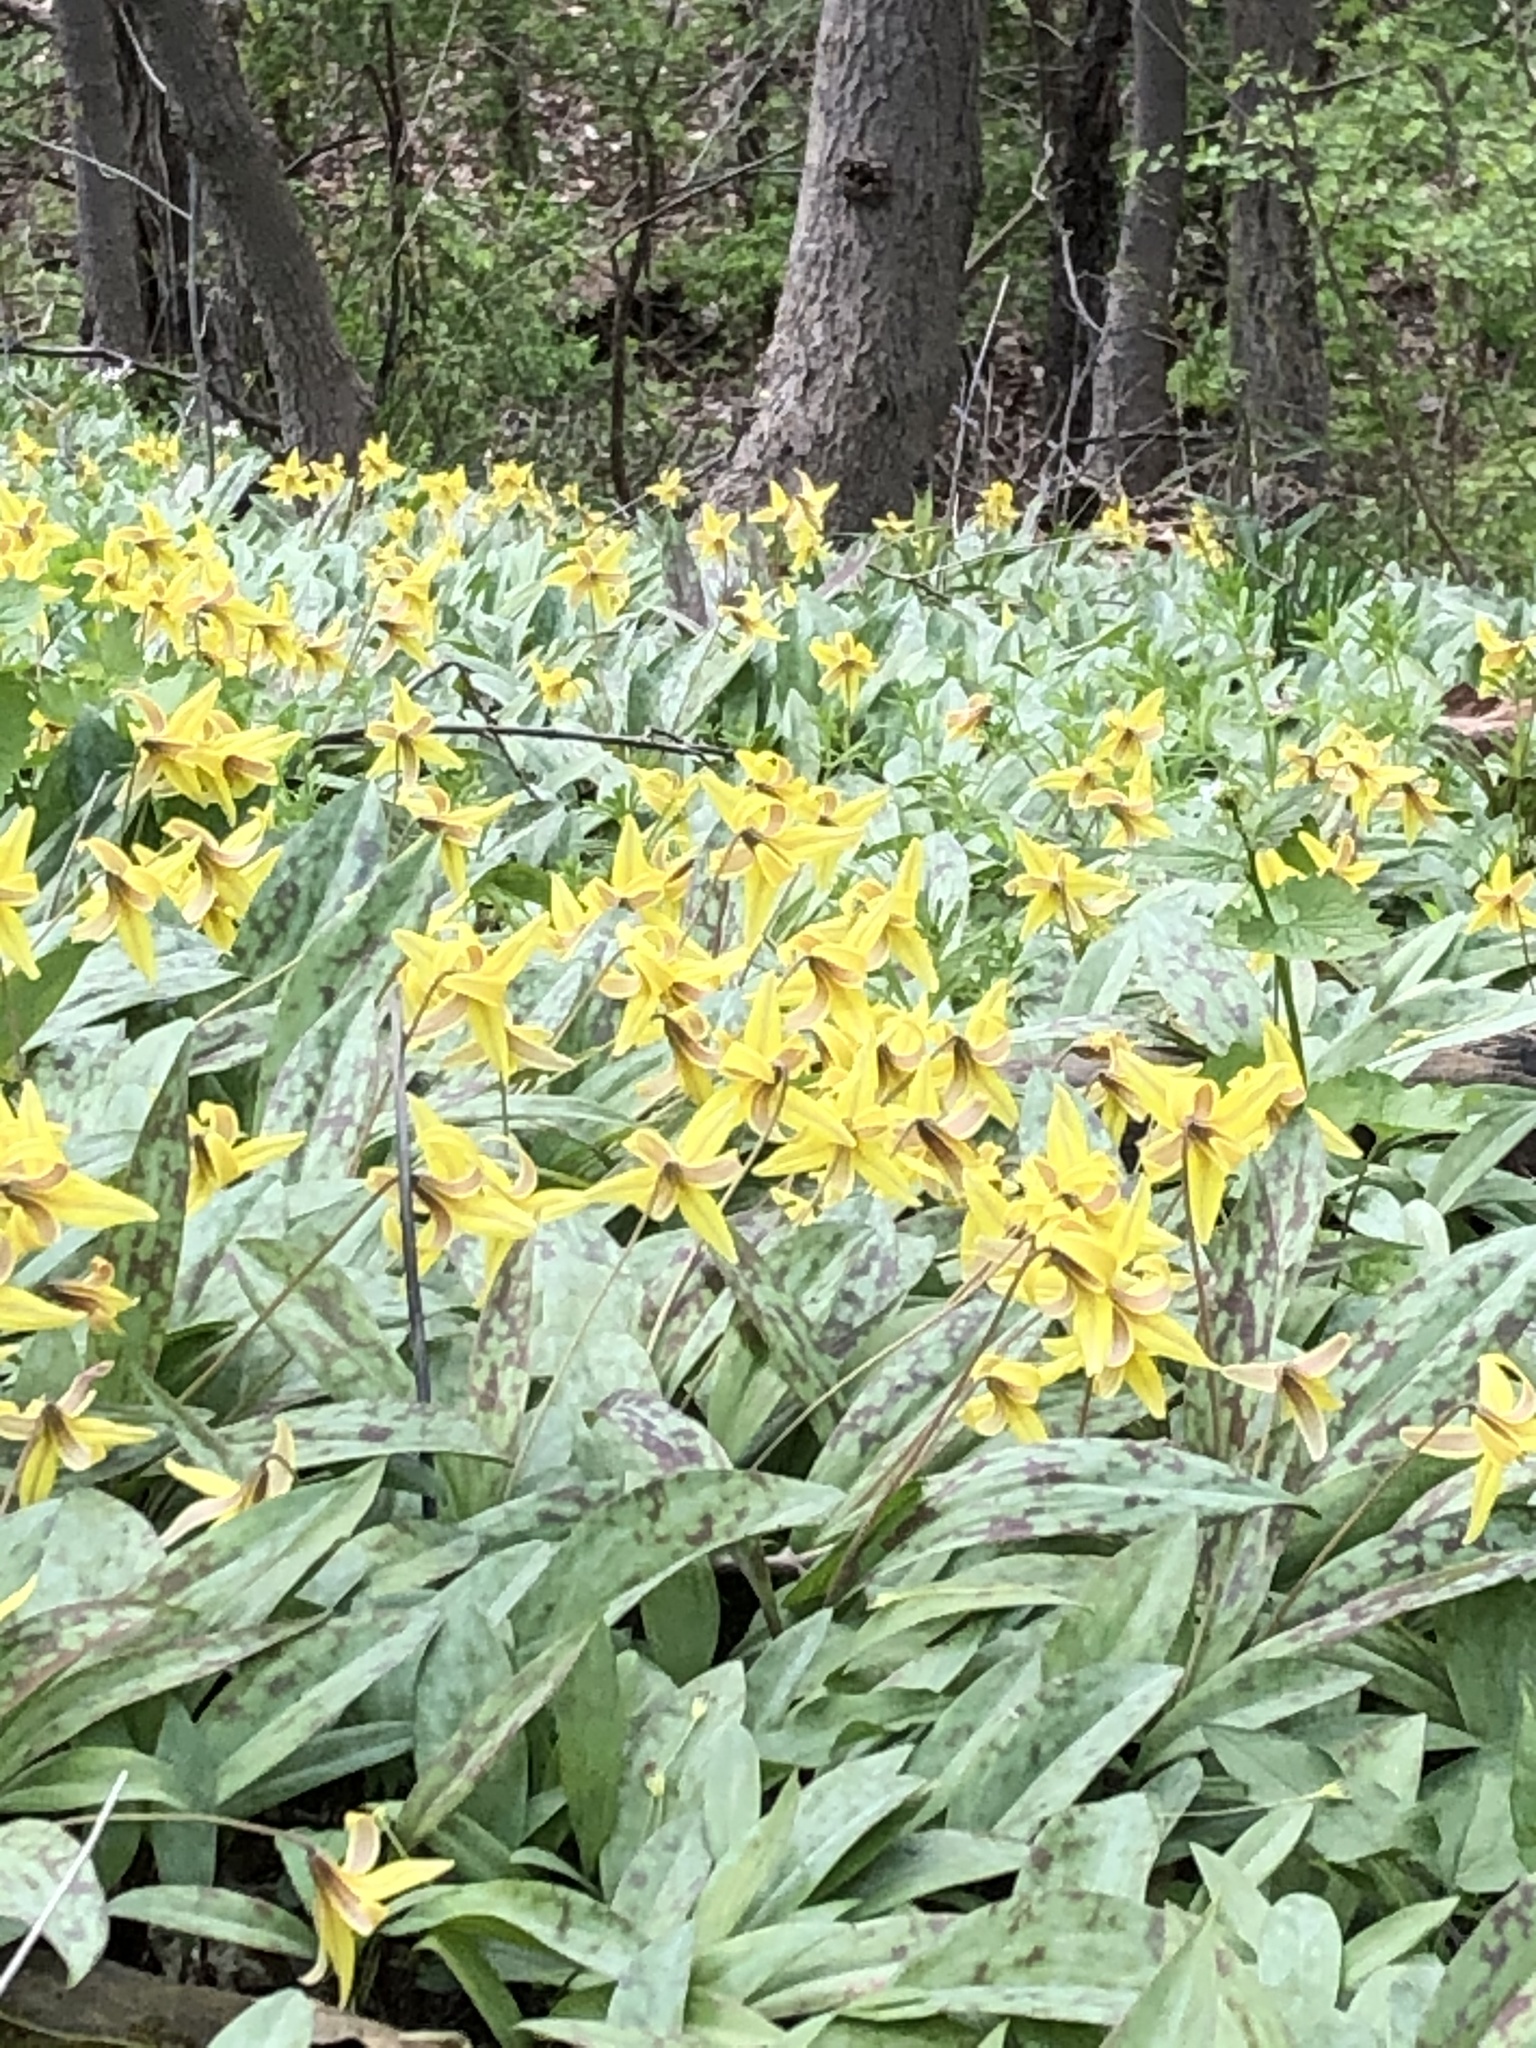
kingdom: Plantae
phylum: Tracheophyta
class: Liliopsida
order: Liliales
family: Liliaceae
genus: Erythronium
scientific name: Erythronium americanum
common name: Yellow adder's-tongue
